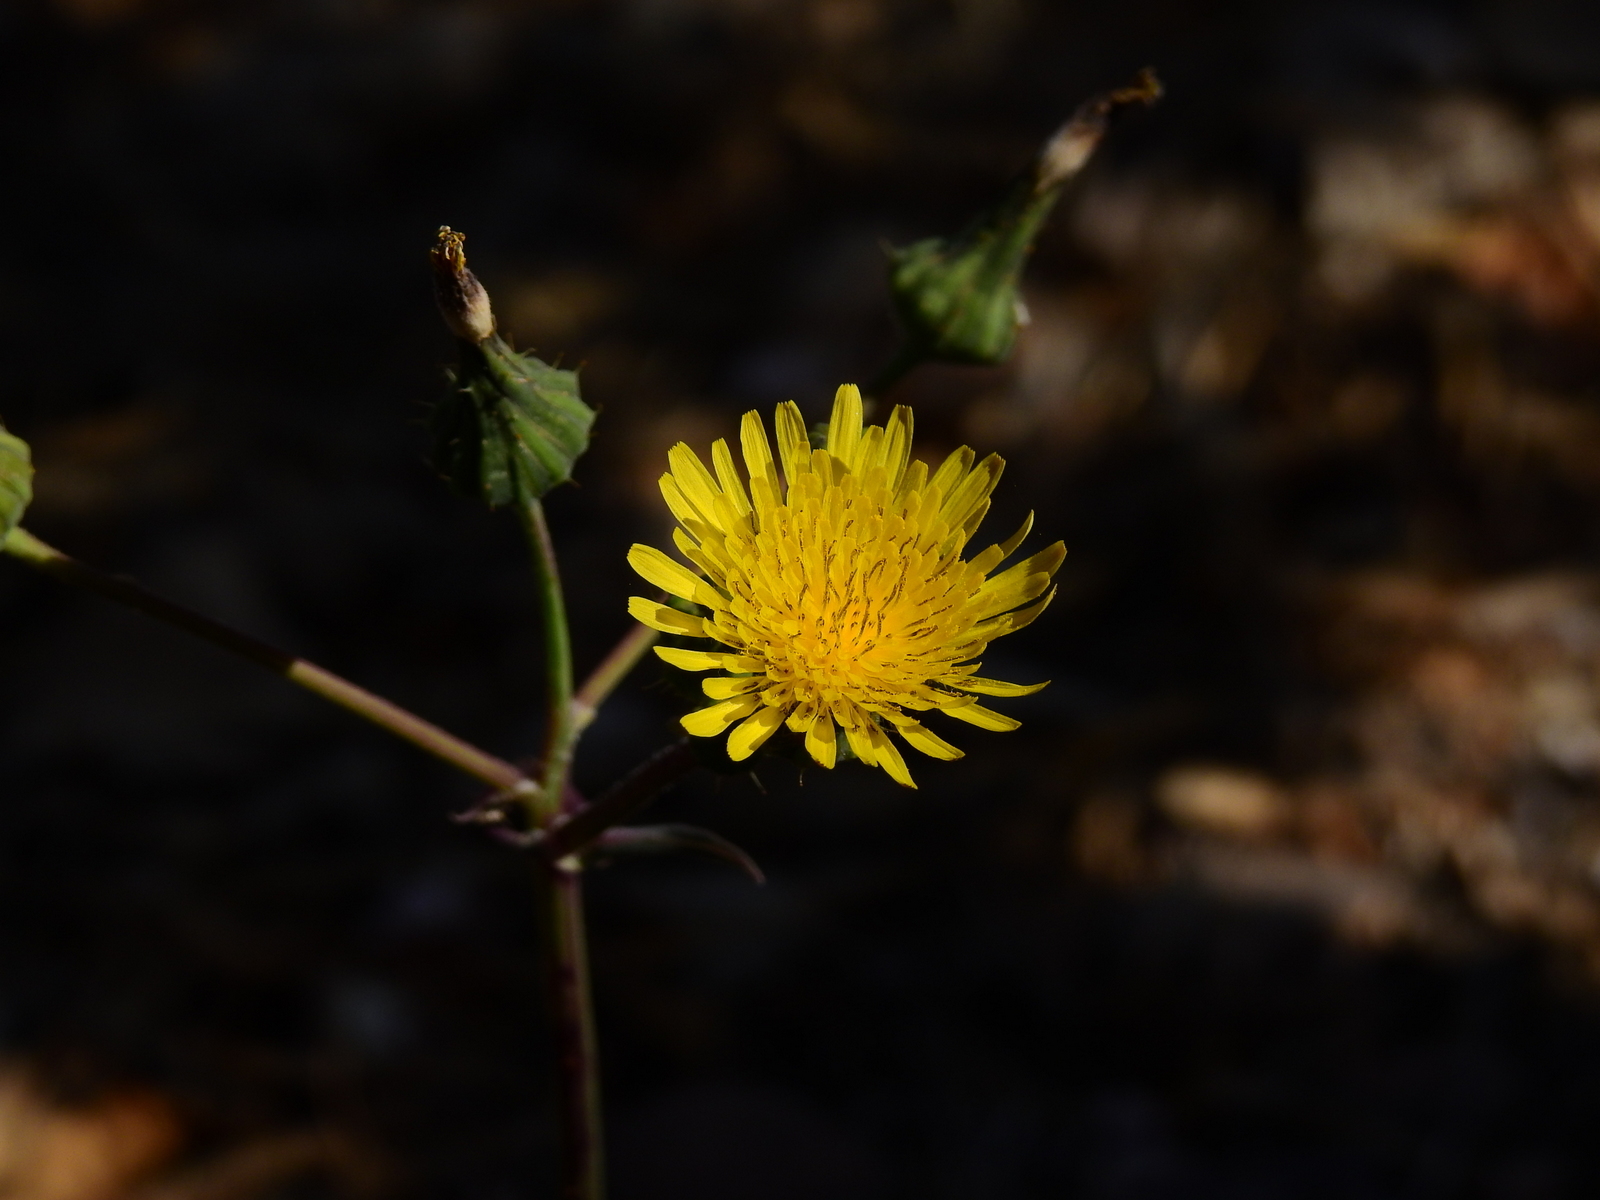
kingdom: Plantae
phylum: Tracheophyta
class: Magnoliopsida
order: Asterales
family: Asteraceae
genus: Sonchus
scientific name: Sonchus oleraceus
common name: Common sowthistle
